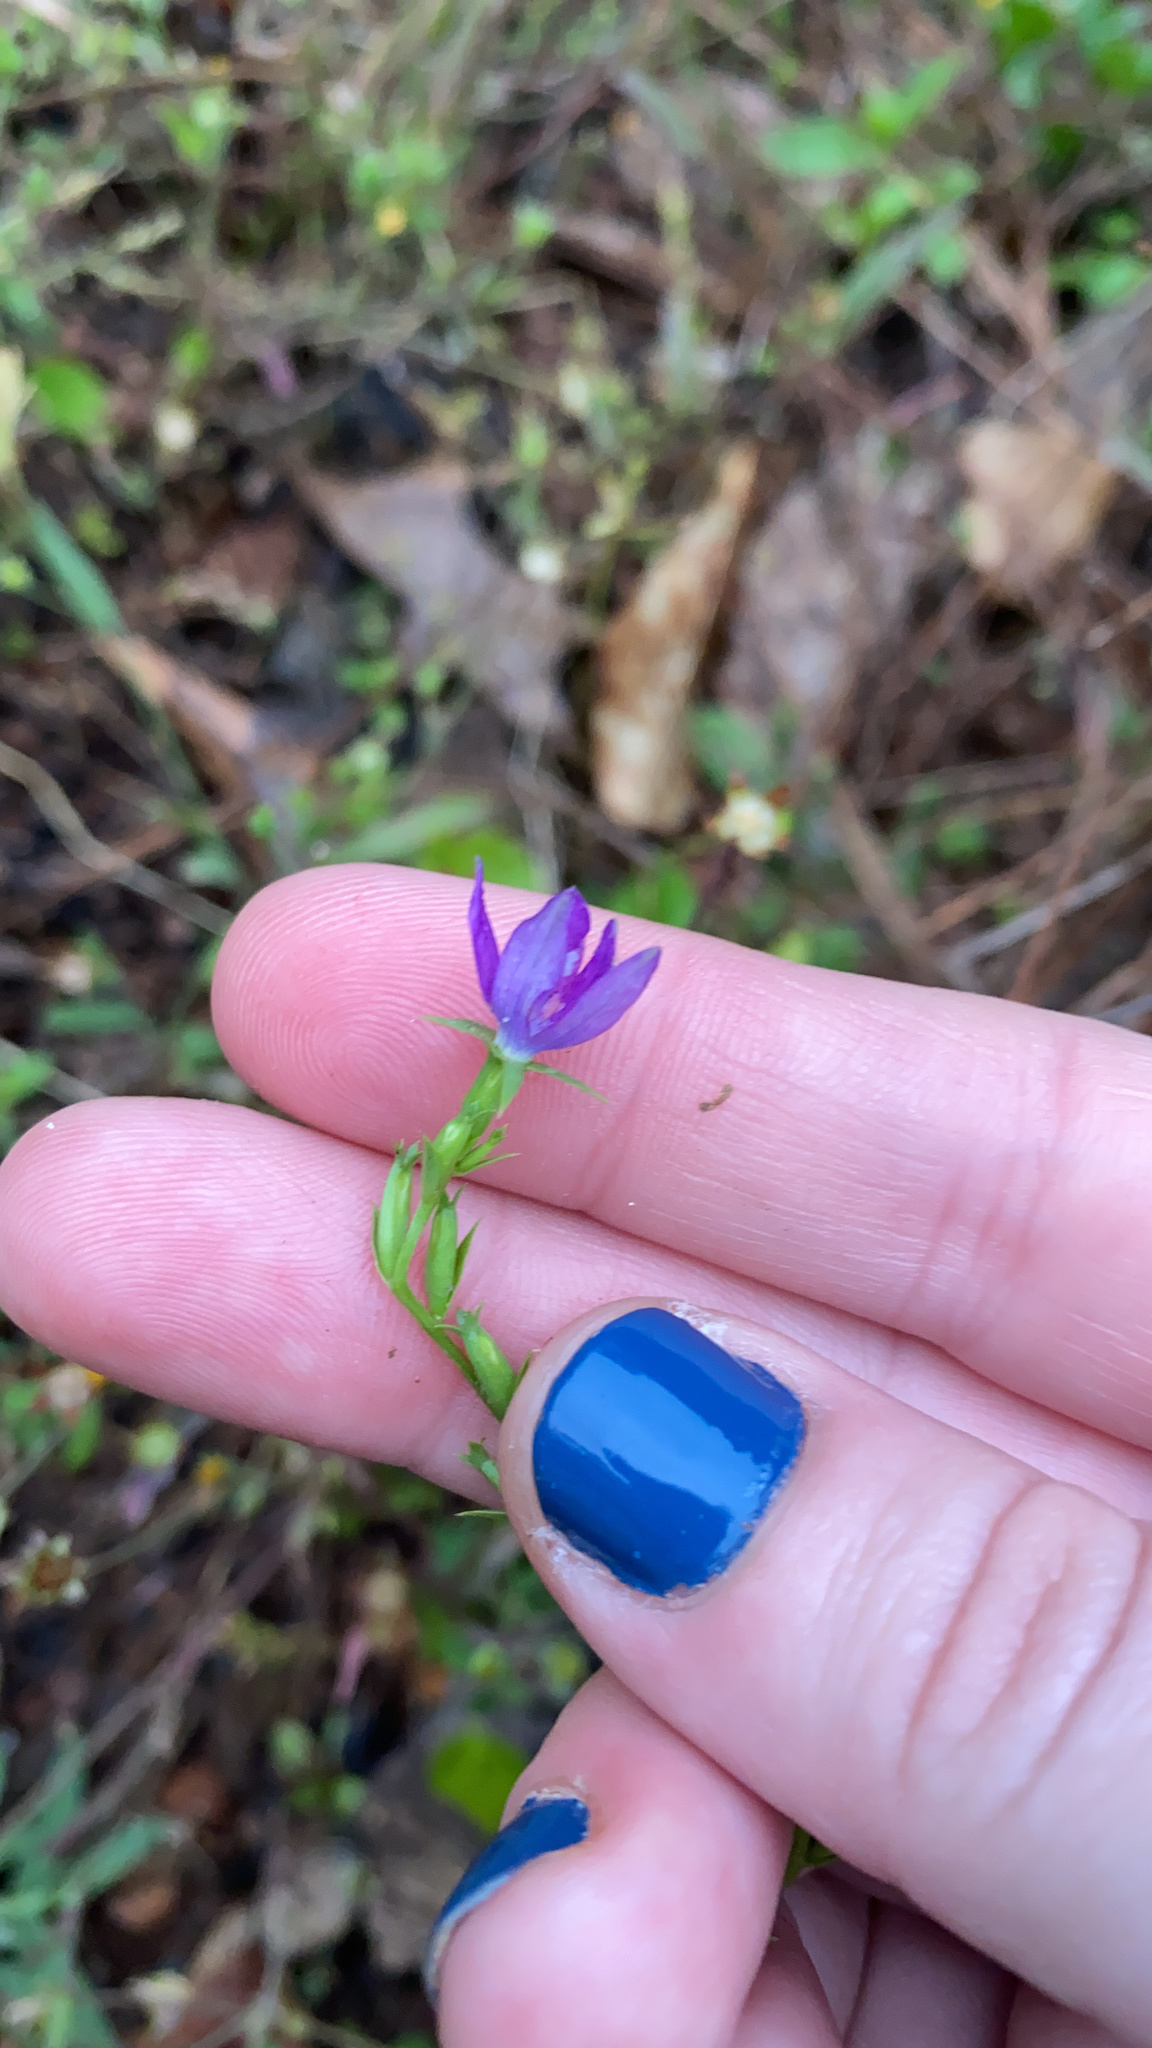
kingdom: Plantae
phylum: Tracheophyta
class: Magnoliopsida
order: Asterales
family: Campanulaceae
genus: Triodanis
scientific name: Triodanis biflora
